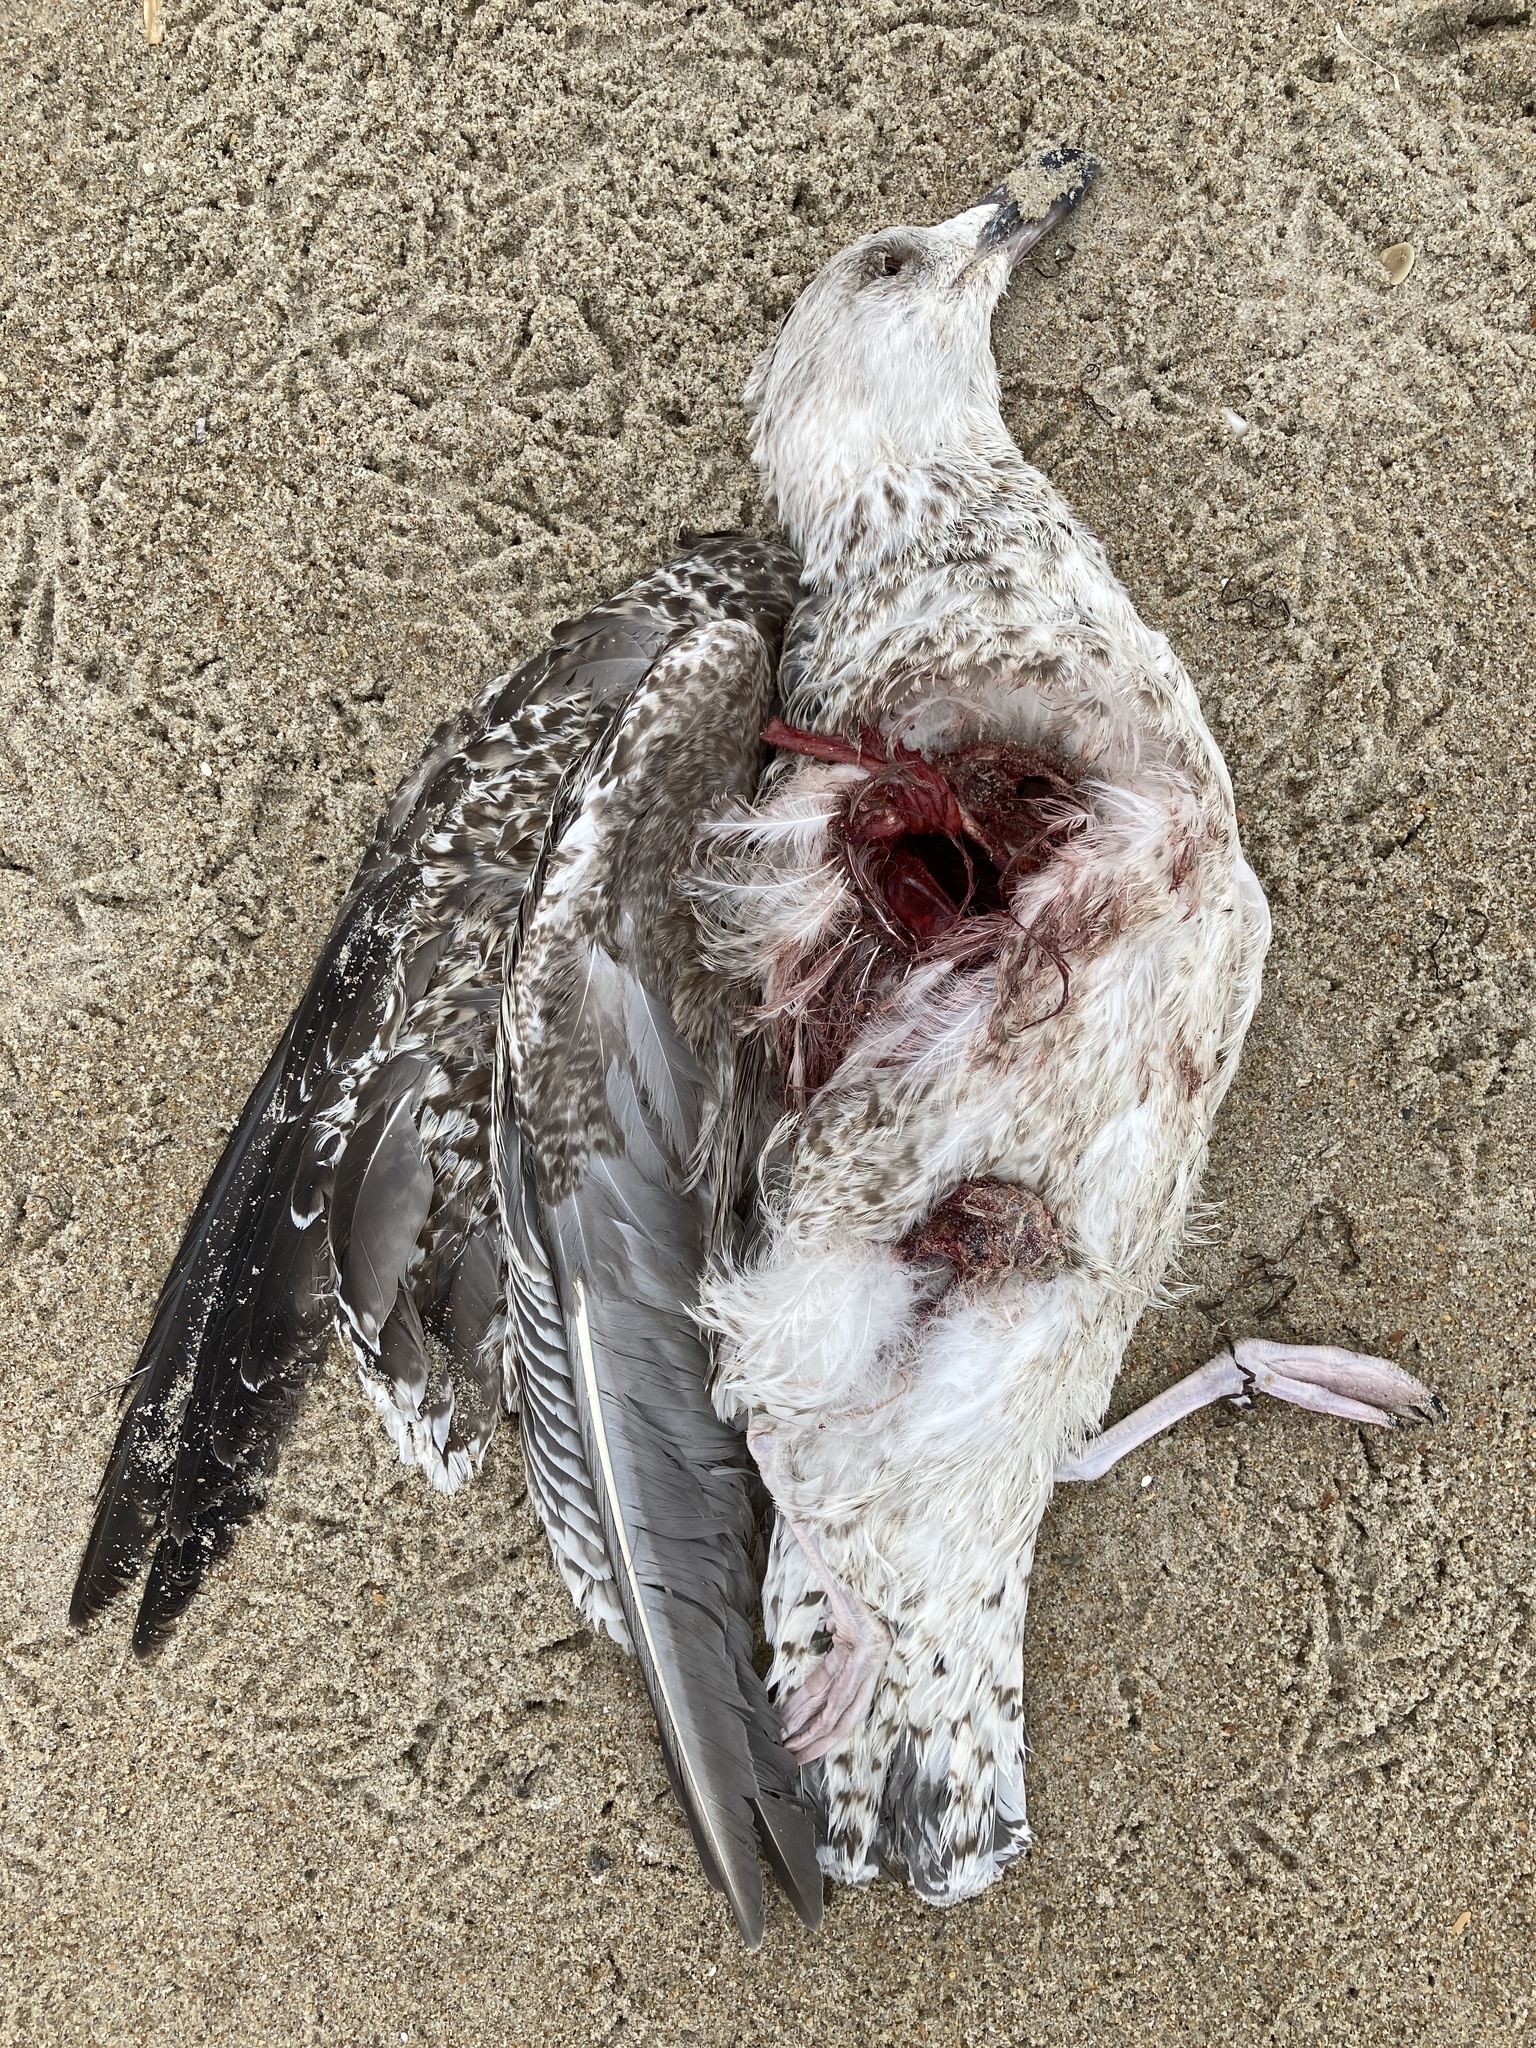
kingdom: Animalia
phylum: Chordata
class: Aves
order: Charadriiformes
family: Laridae
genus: Larus
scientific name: Larus marinus
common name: Great black-backed gull
